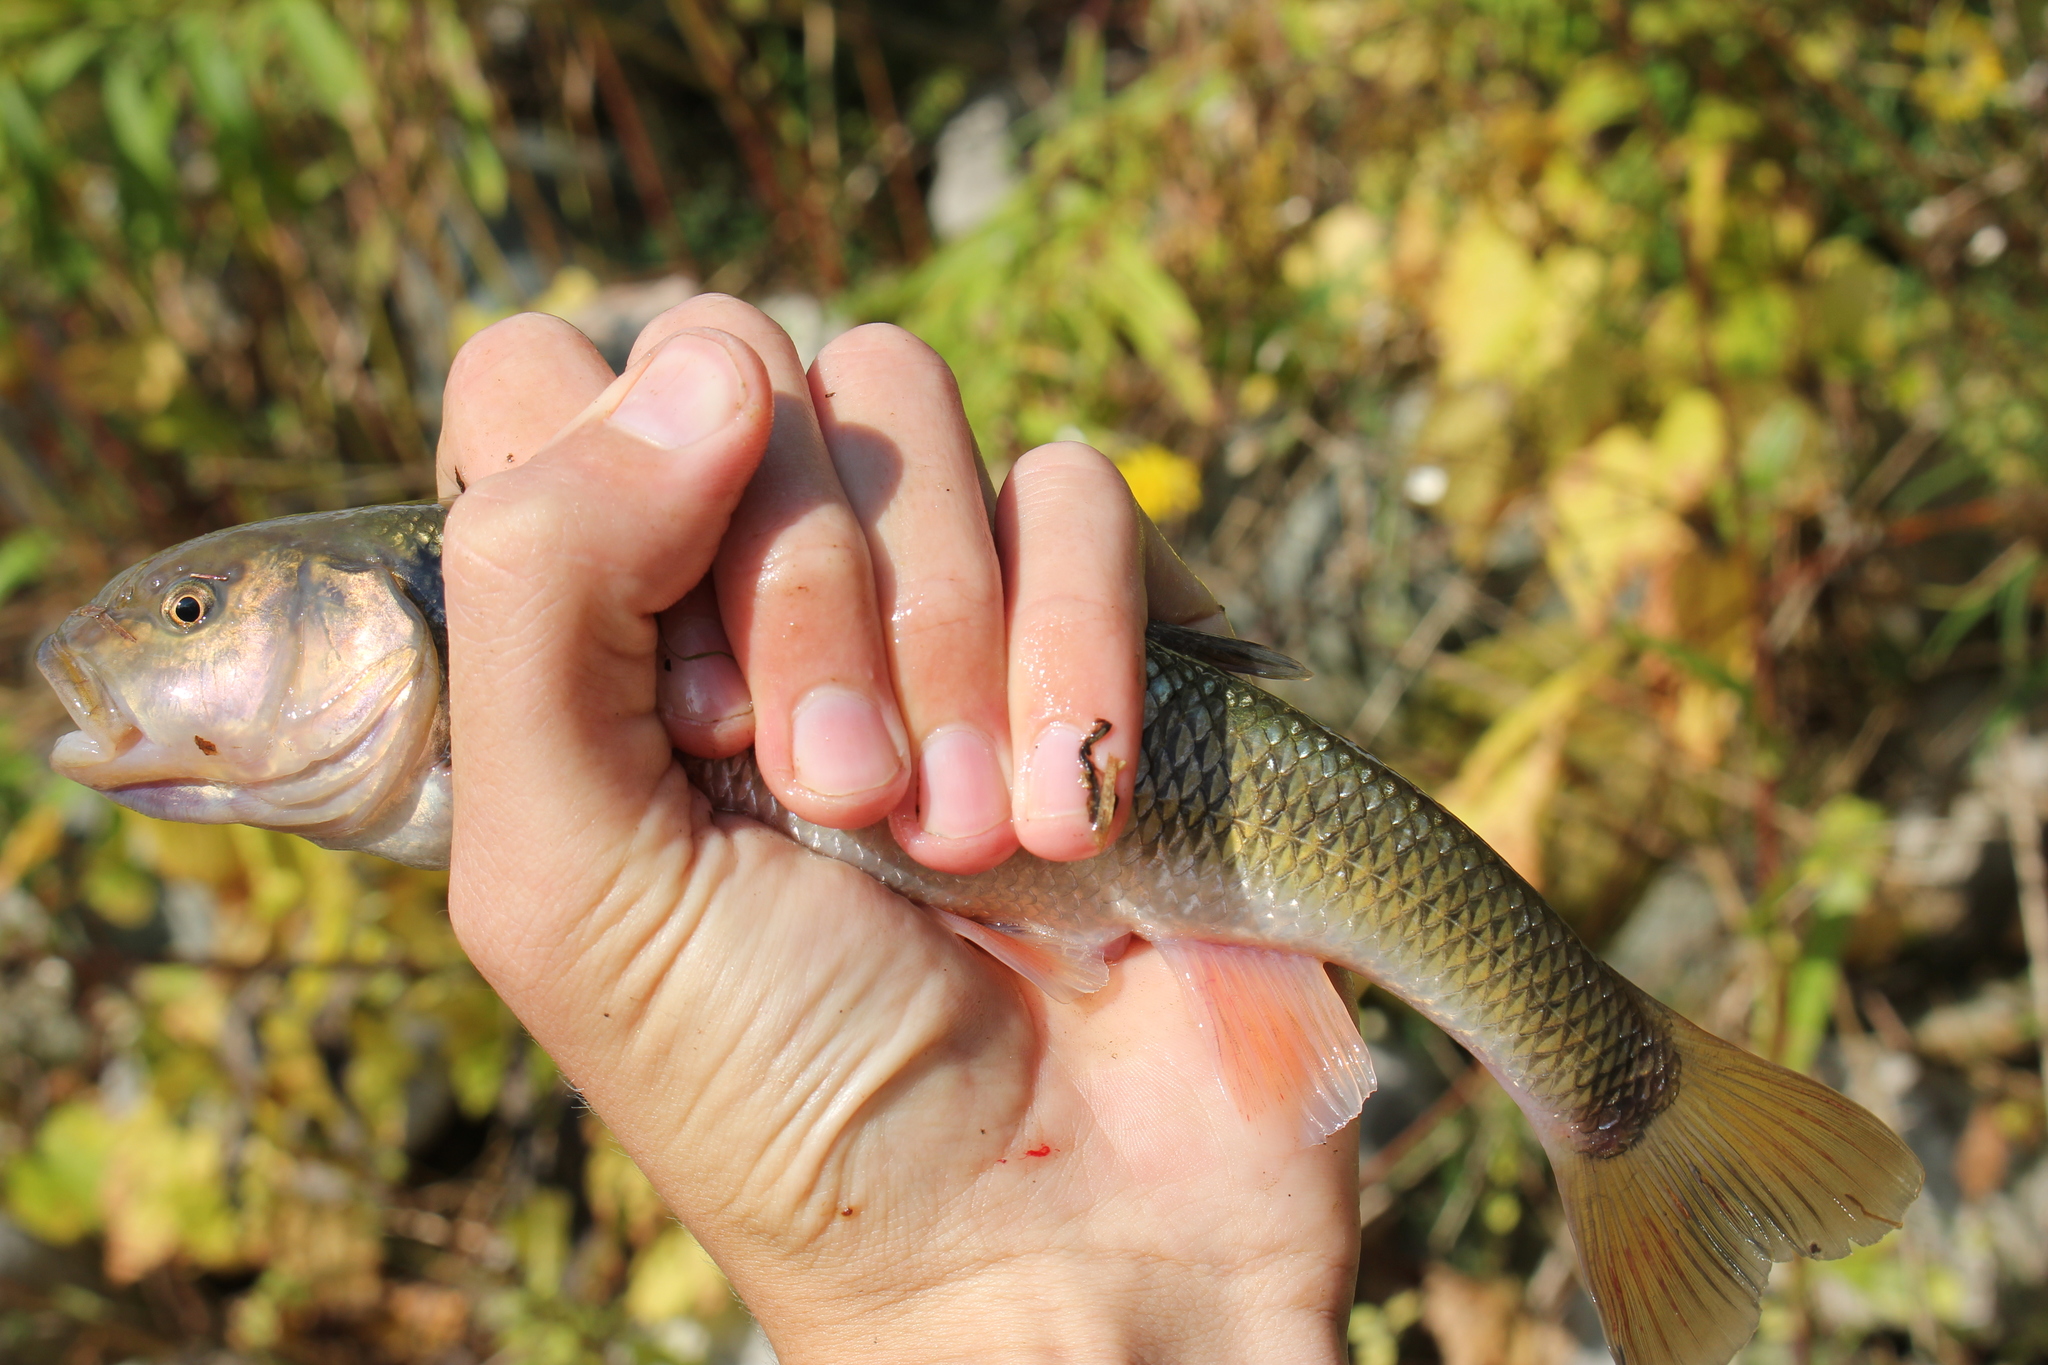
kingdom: Animalia
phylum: Chordata
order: Cypriniformes
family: Cyprinidae
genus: Semotilus
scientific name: Semotilus atromaculatus
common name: Creek chub
